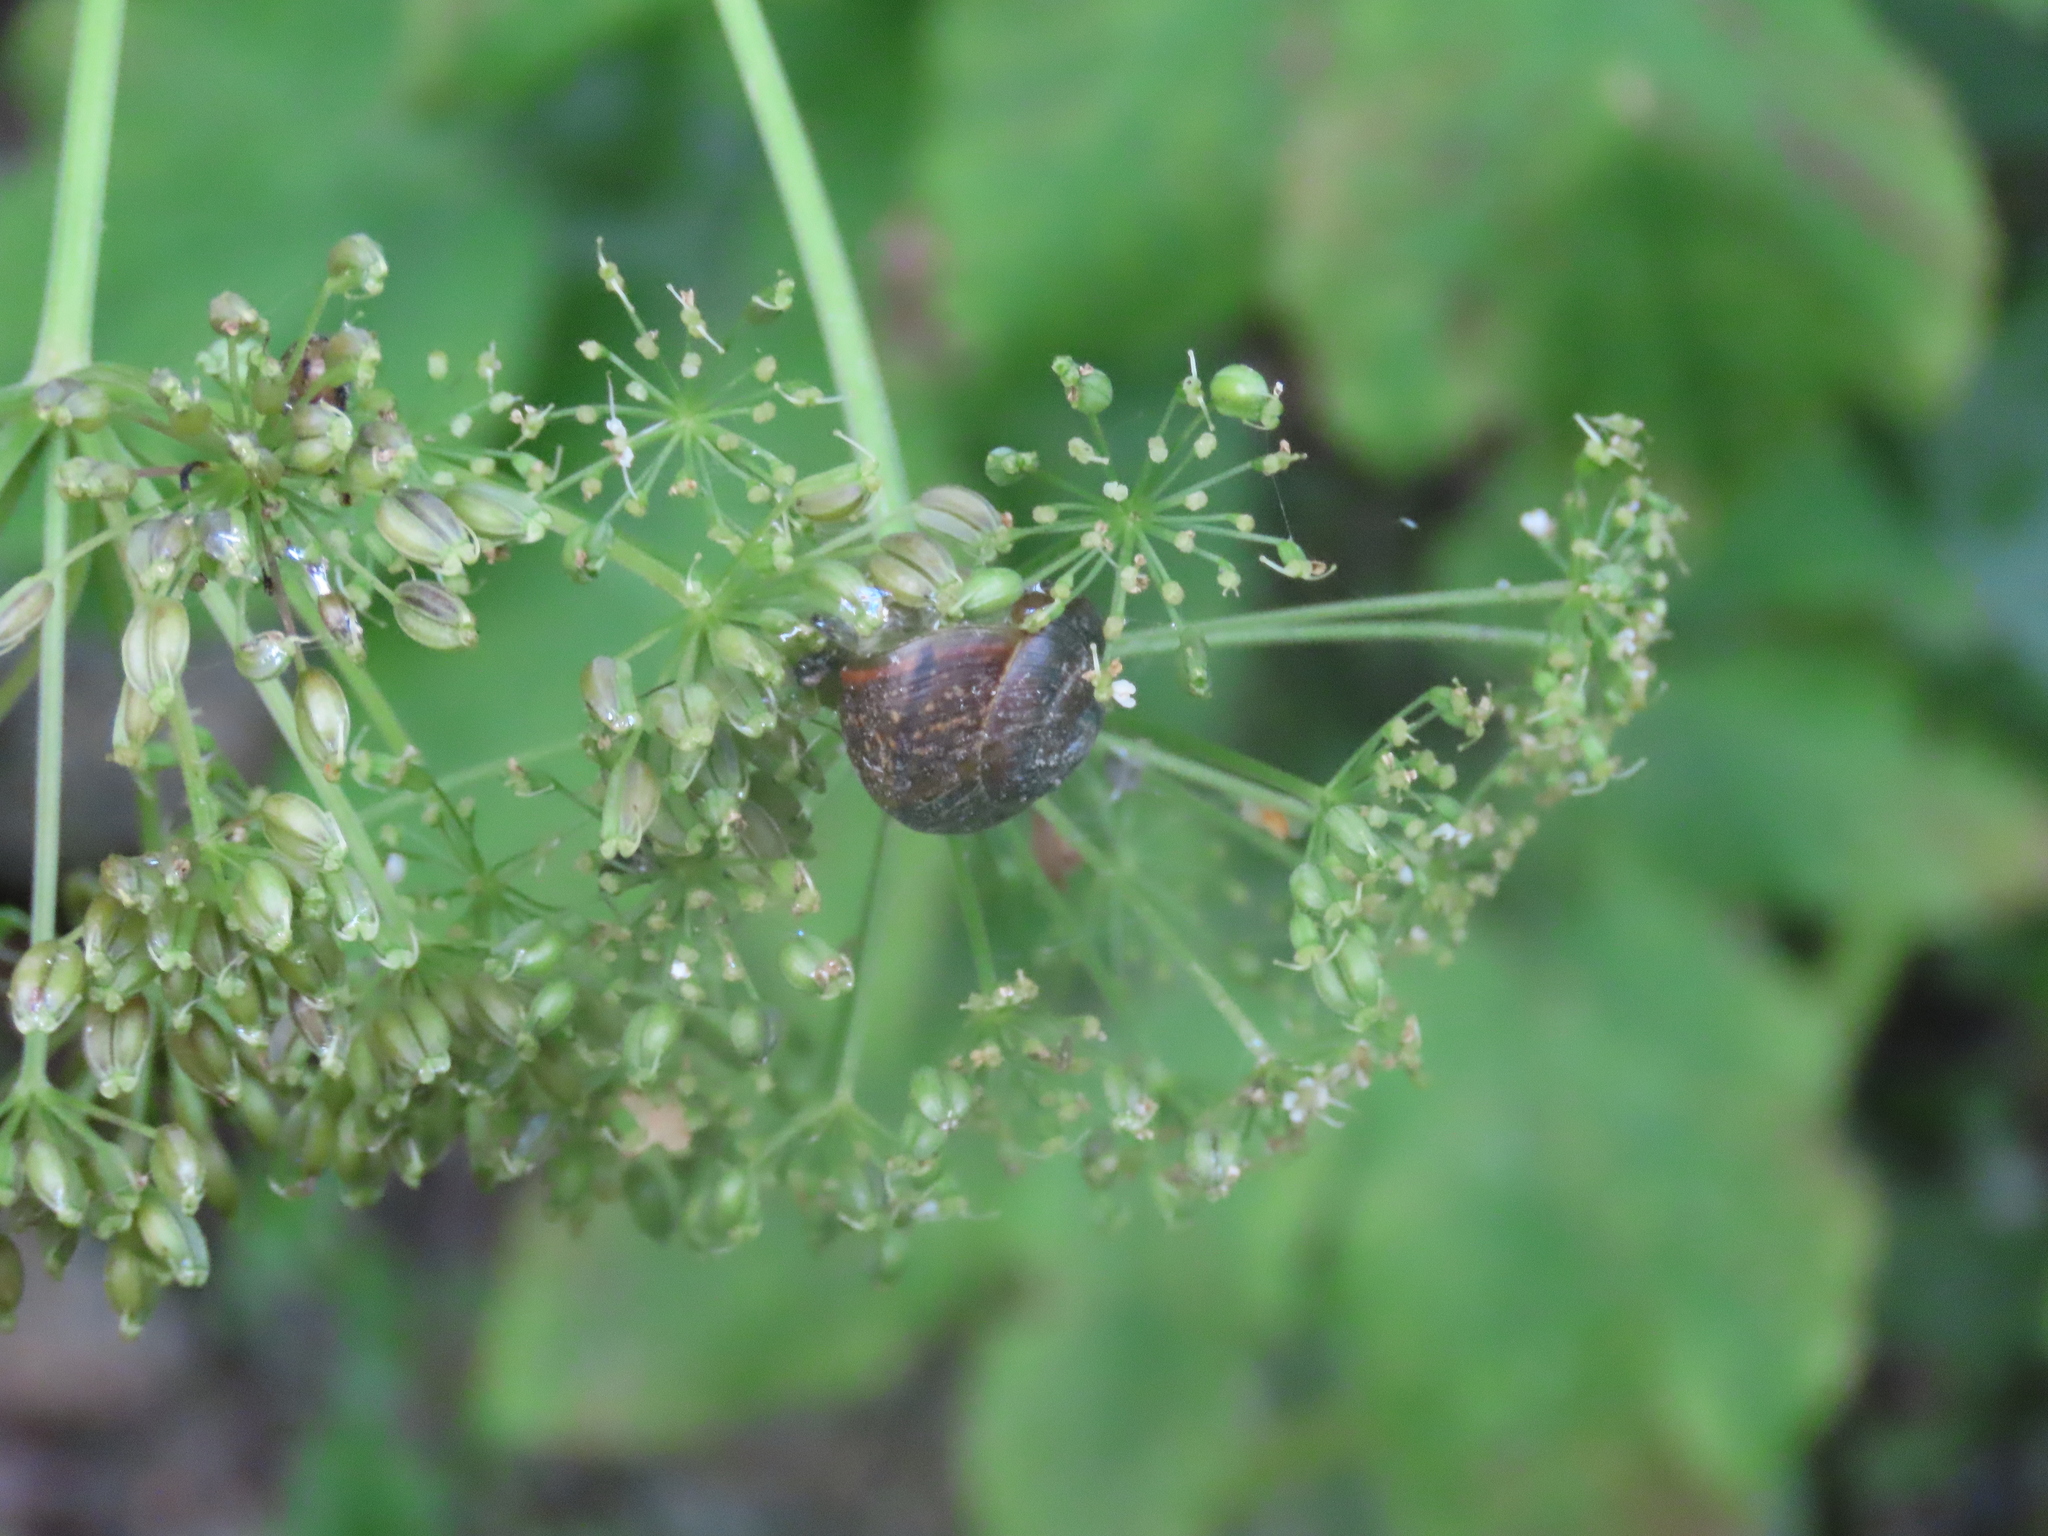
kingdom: Animalia
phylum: Mollusca
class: Gastropoda
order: Stylommatophora
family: Helicidae
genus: Arianta
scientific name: Arianta arbustorum
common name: Copse snail
